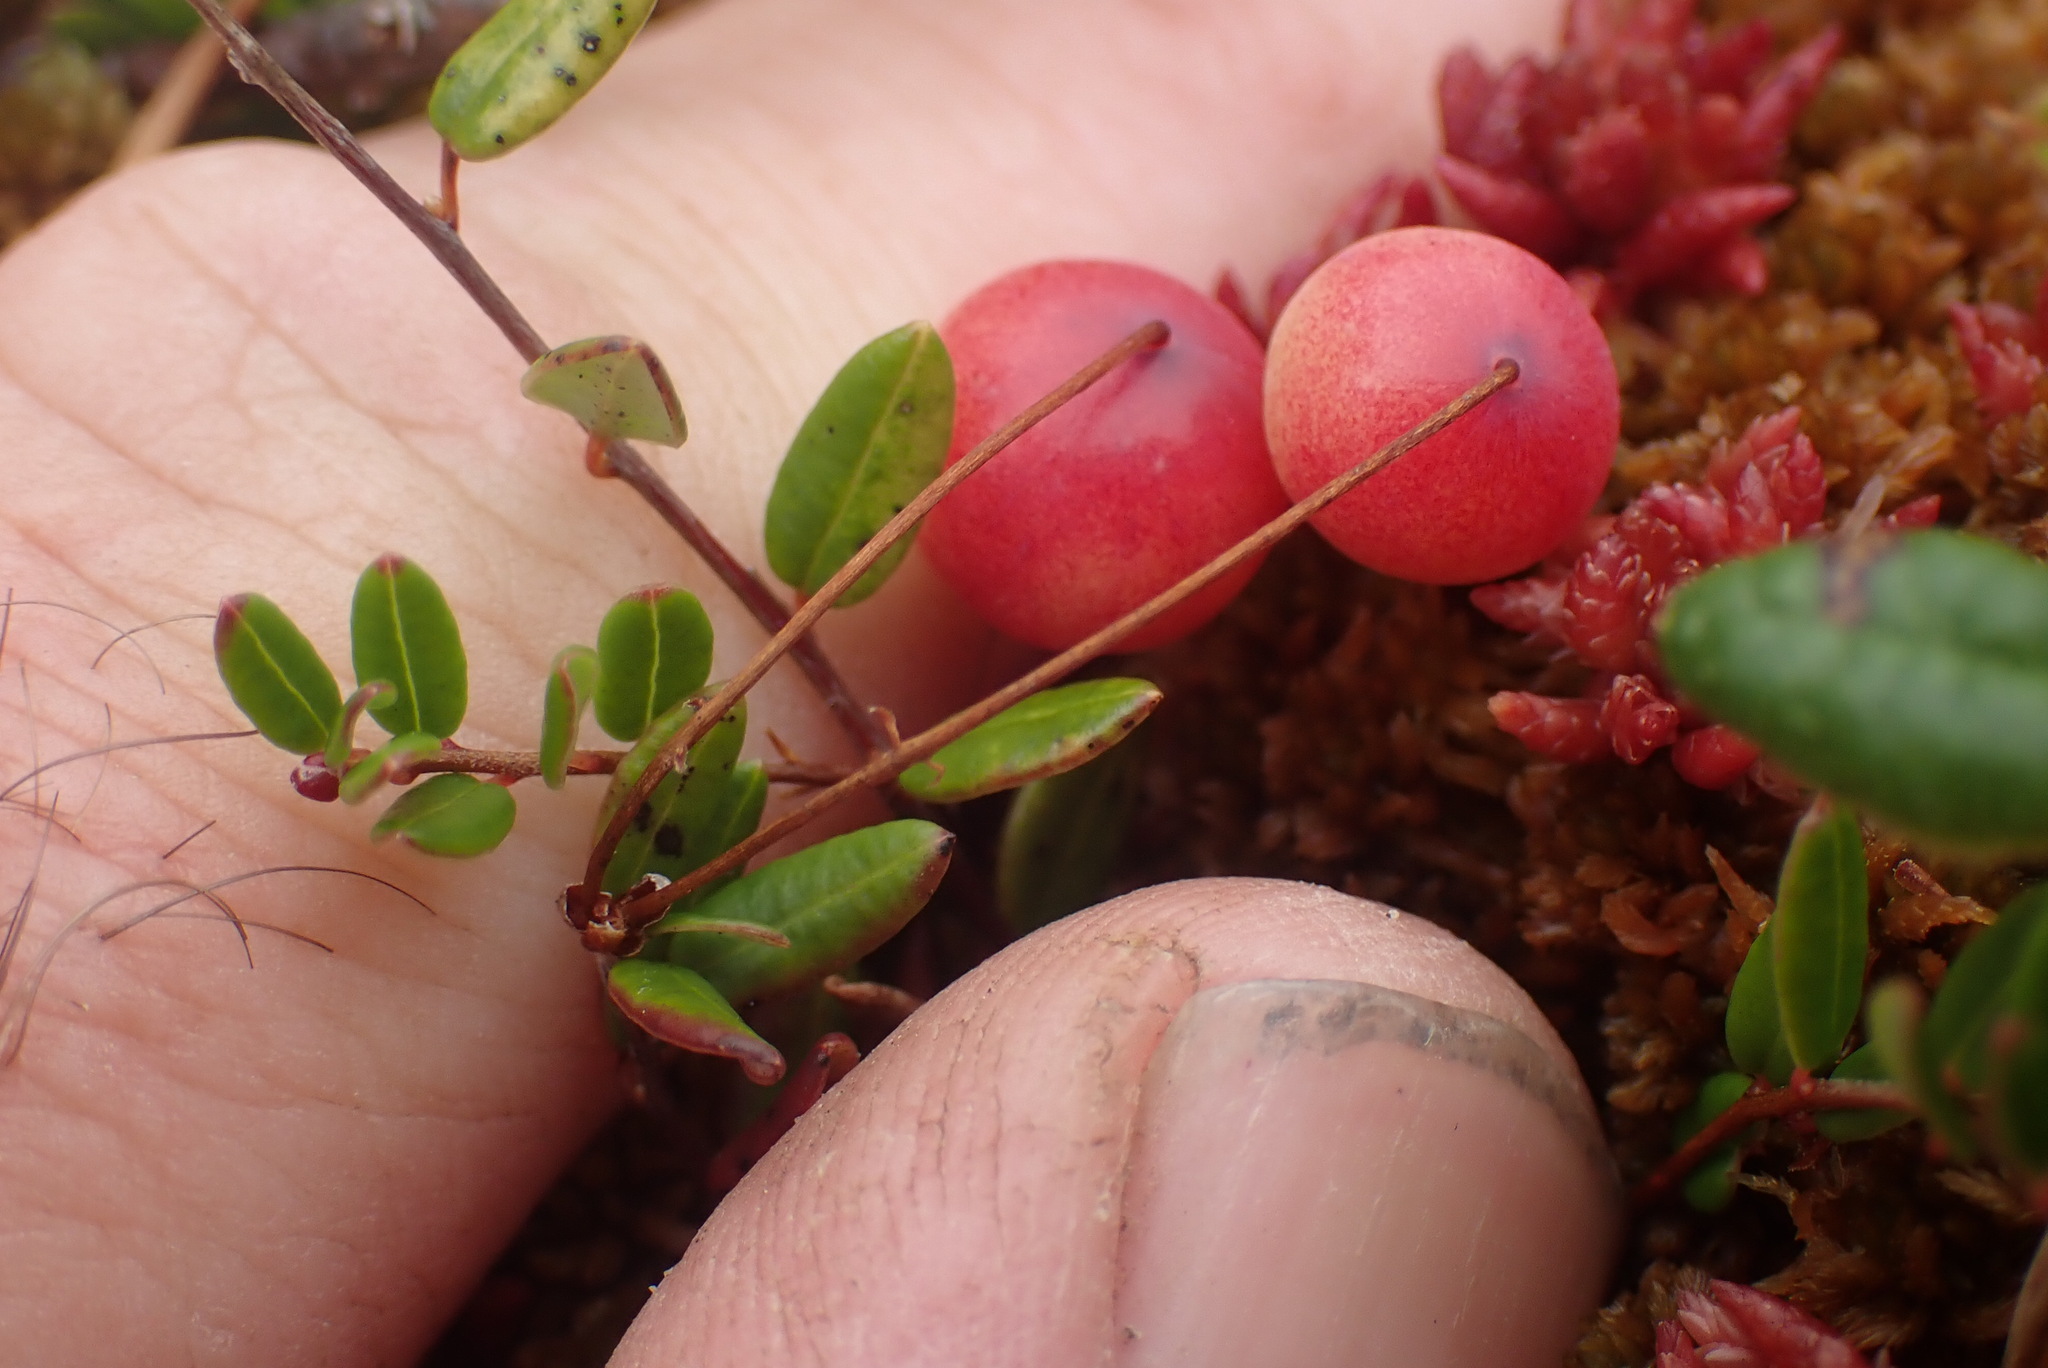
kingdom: Plantae
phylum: Tracheophyta
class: Magnoliopsida
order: Ericales
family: Ericaceae
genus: Vaccinium
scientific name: Vaccinium oxycoccos
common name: Cranberry
